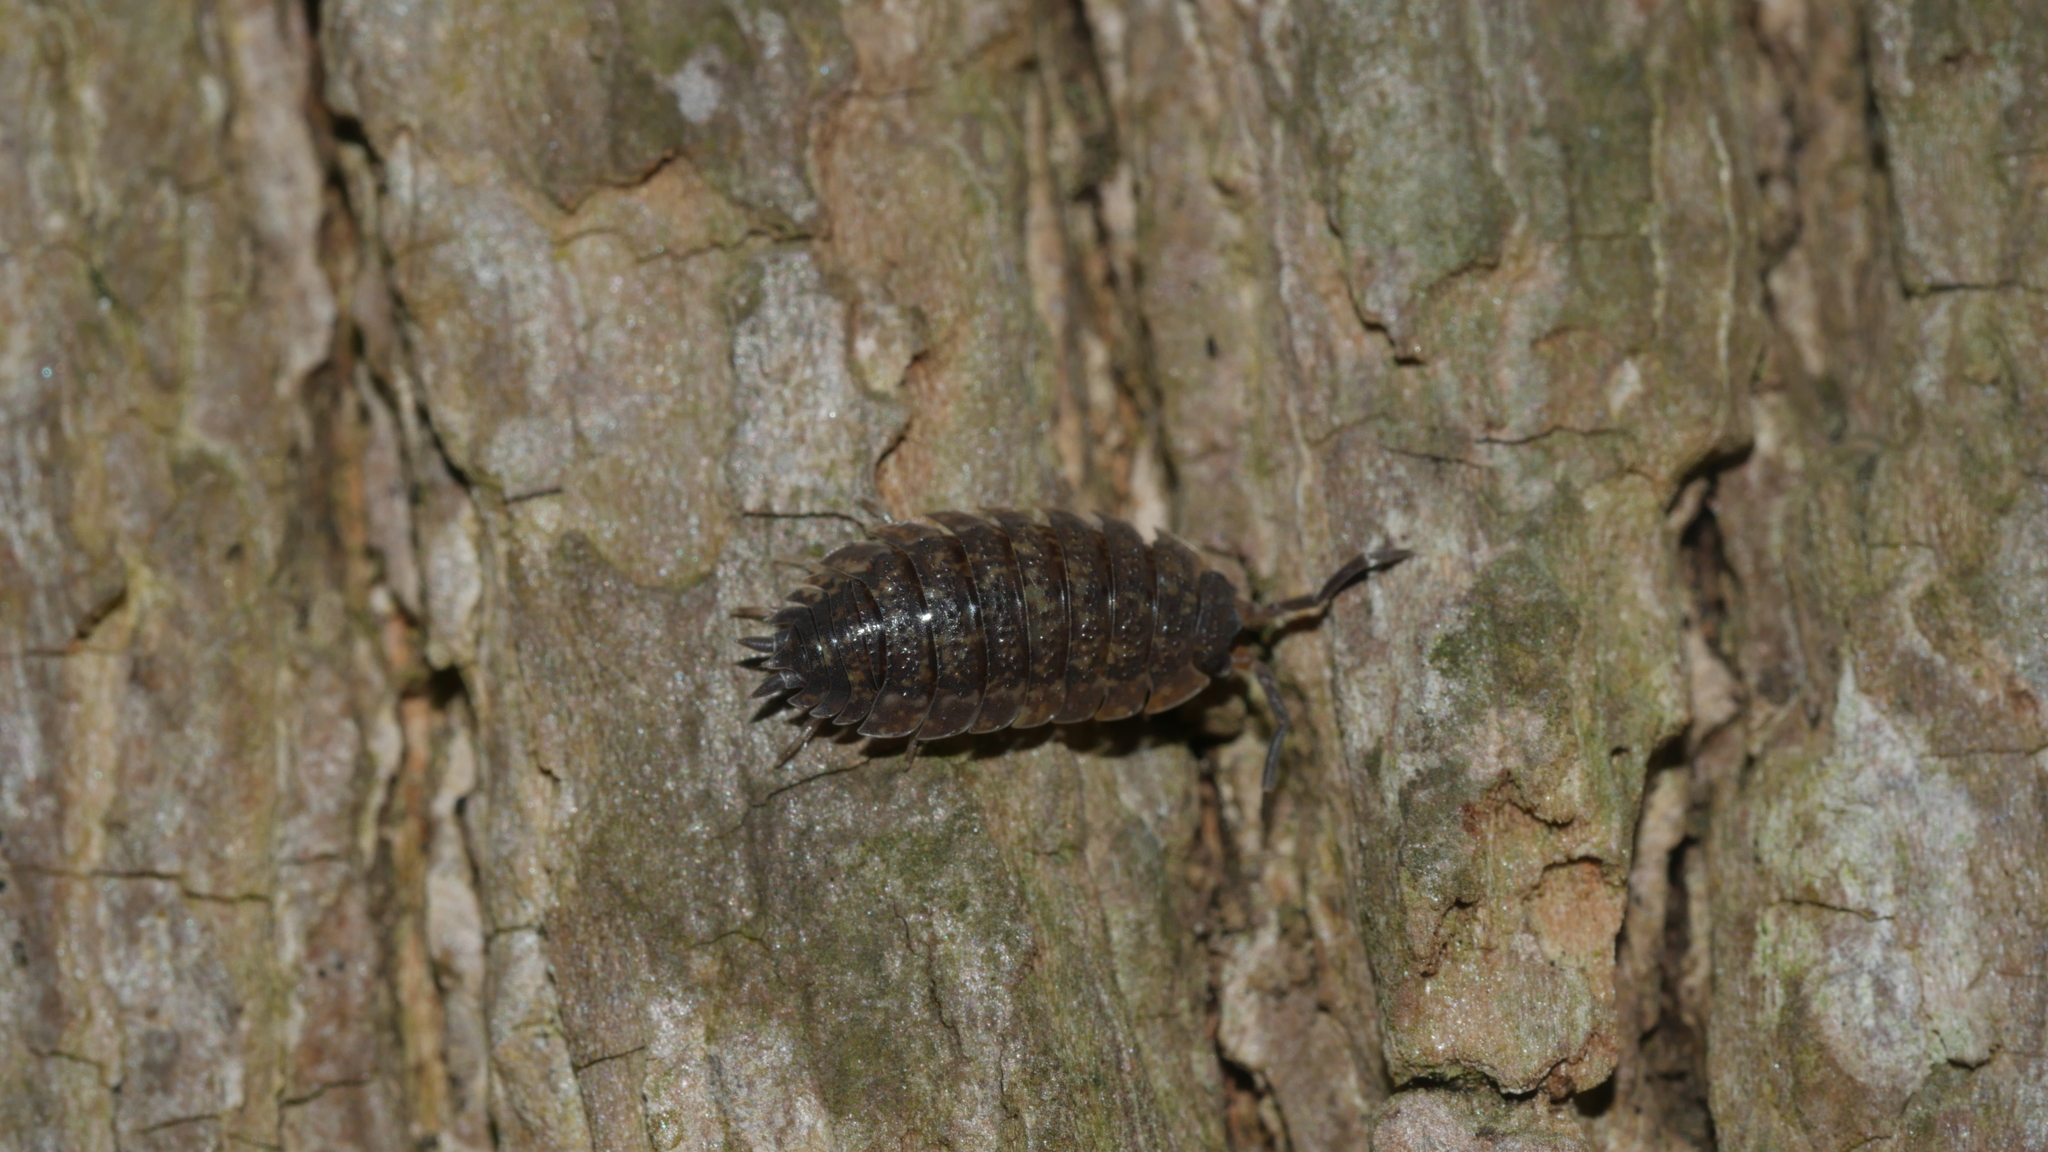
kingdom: Animalia
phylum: Arthropoda
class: Malacostraca
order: Isopoda
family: Porcellionidae
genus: Porcellio
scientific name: Porcellio scaber
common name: Common rough woodlouse
